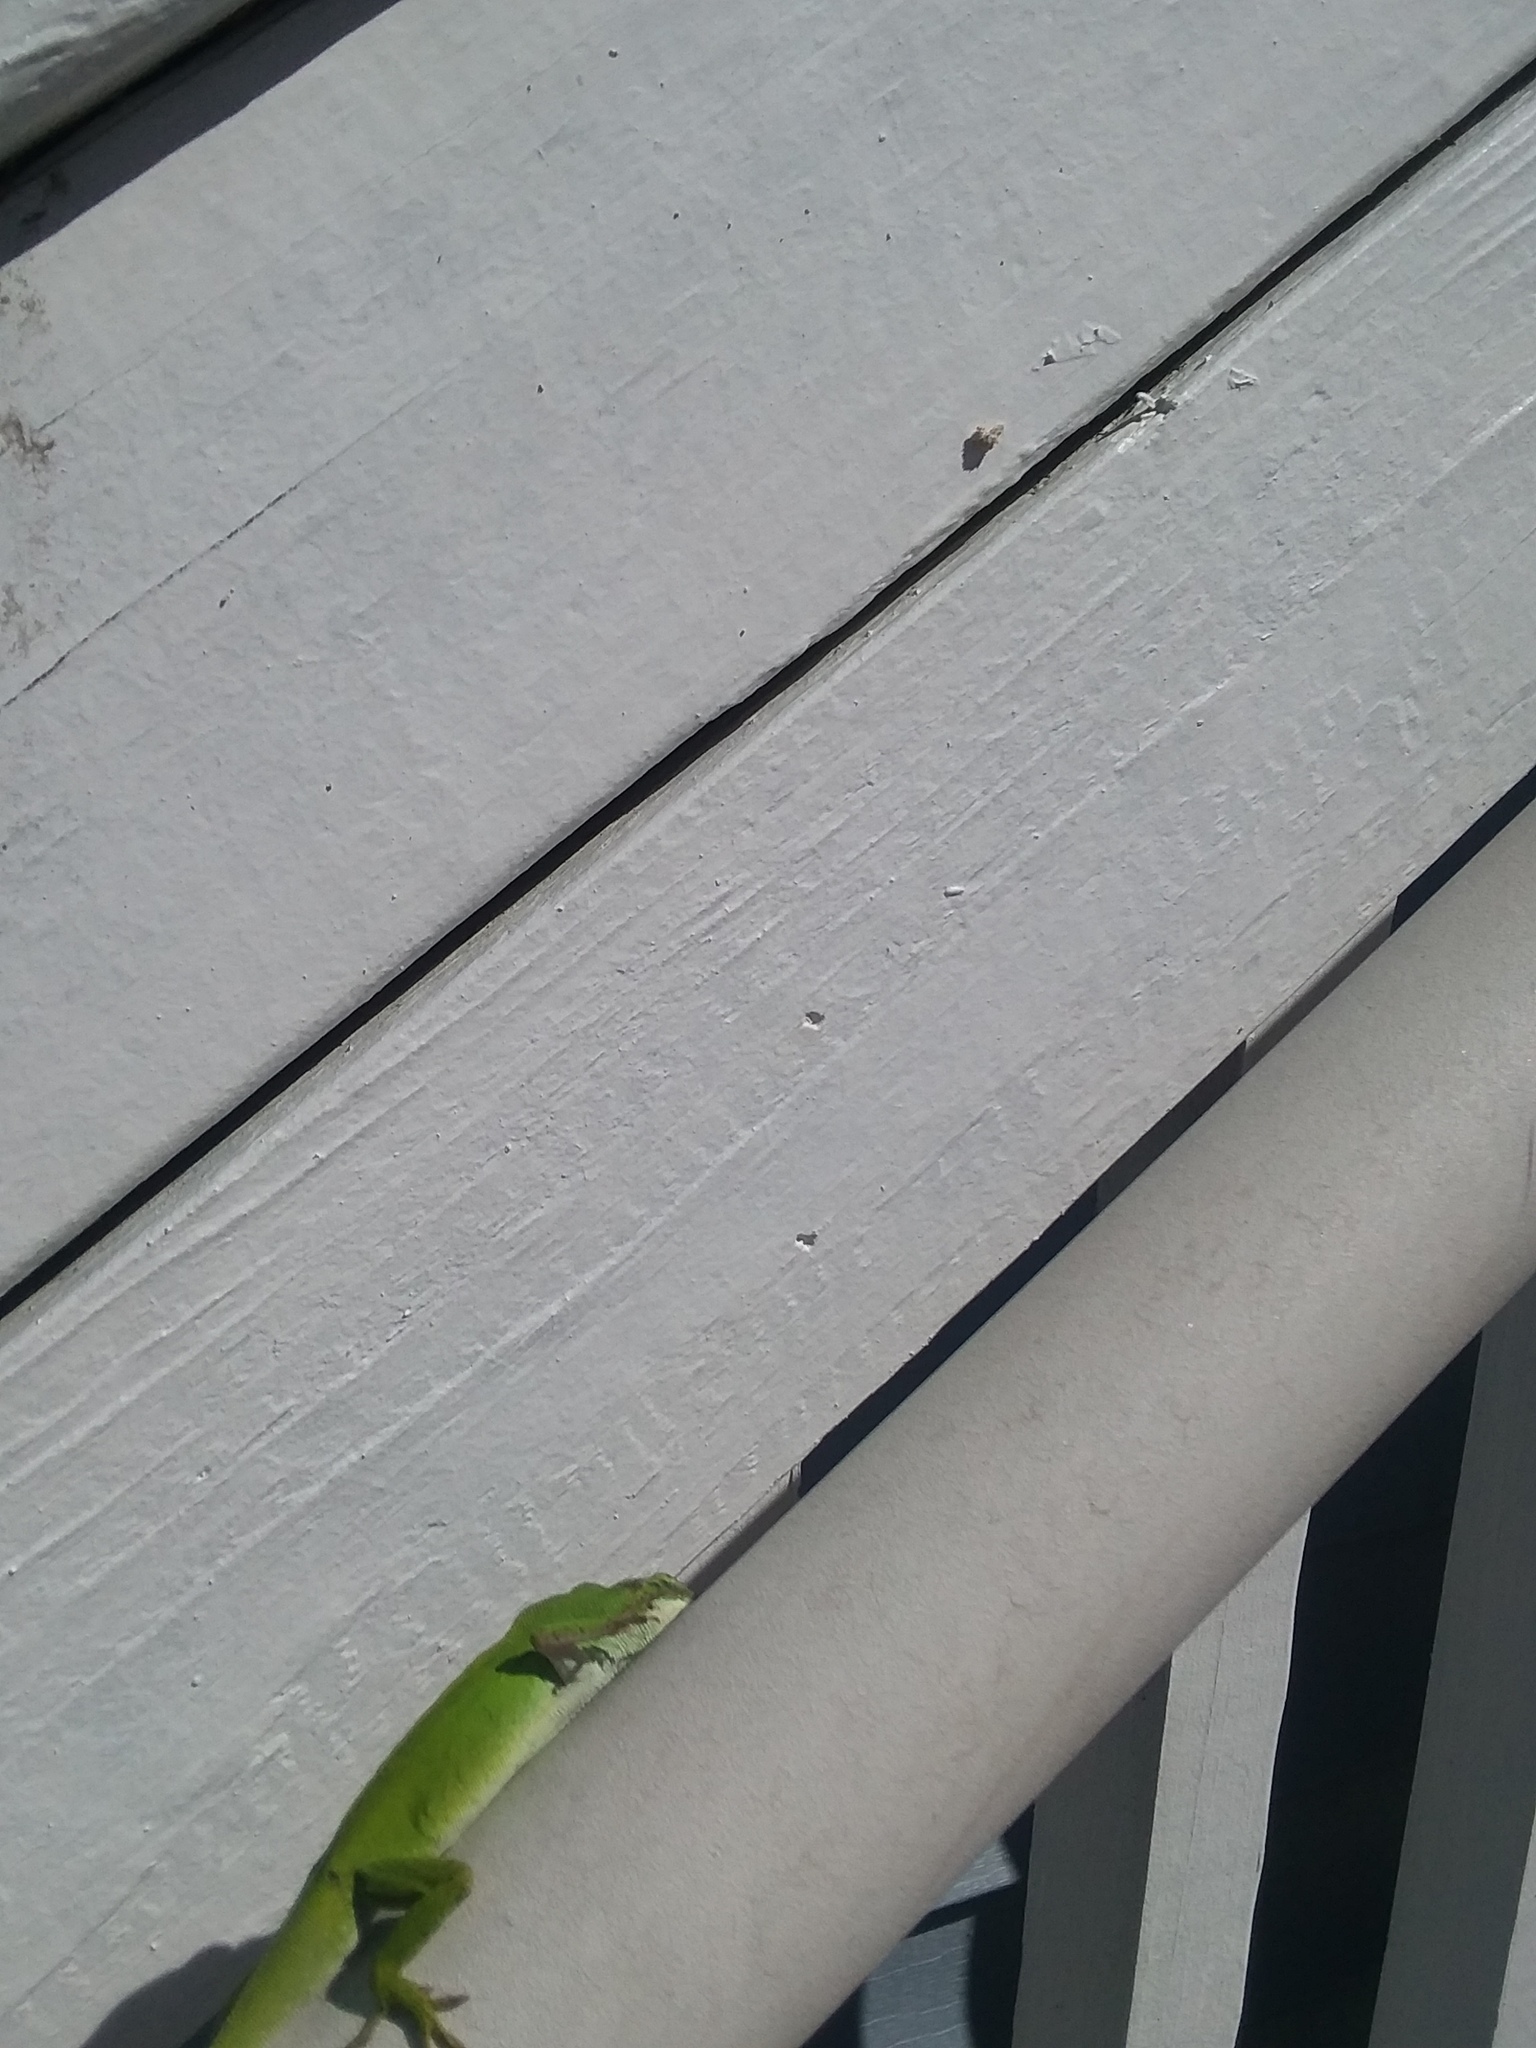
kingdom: Animalia
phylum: Chordata
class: Squamata
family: Dactyloidae
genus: Anolis
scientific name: Anolis carolinensis
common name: Green anole
